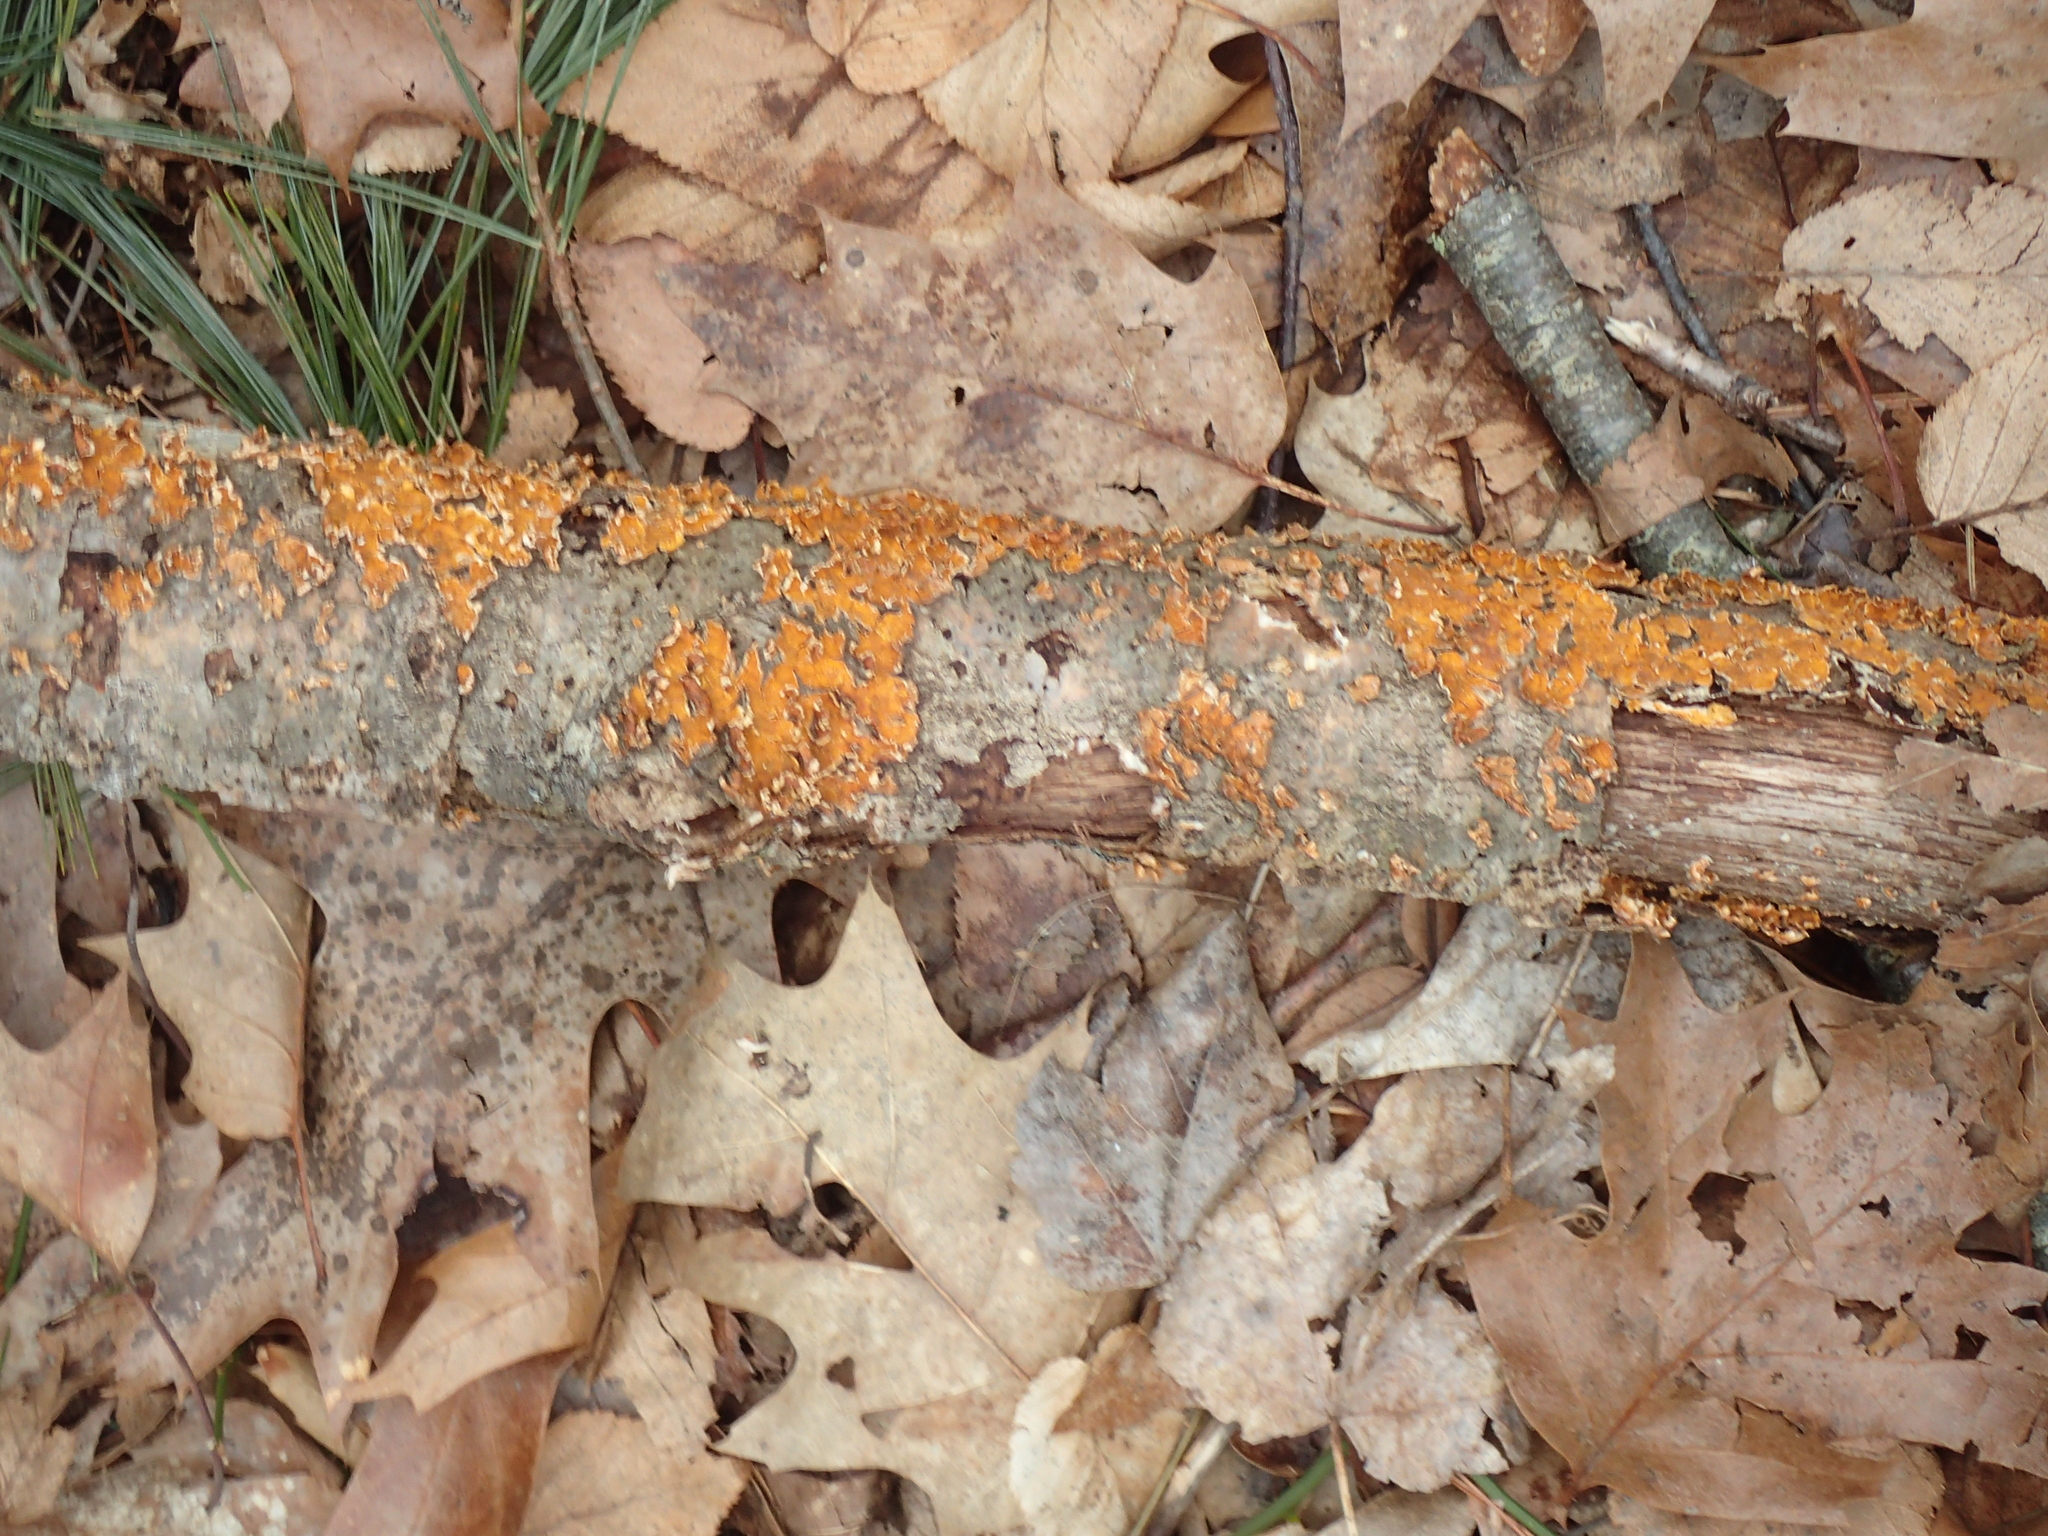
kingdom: Fungi
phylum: Basidiomycota
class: Agaricomycetes
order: Russulales
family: Stereaceae
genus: Stereum
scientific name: Stereum complicatum
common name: Crowded parchment
